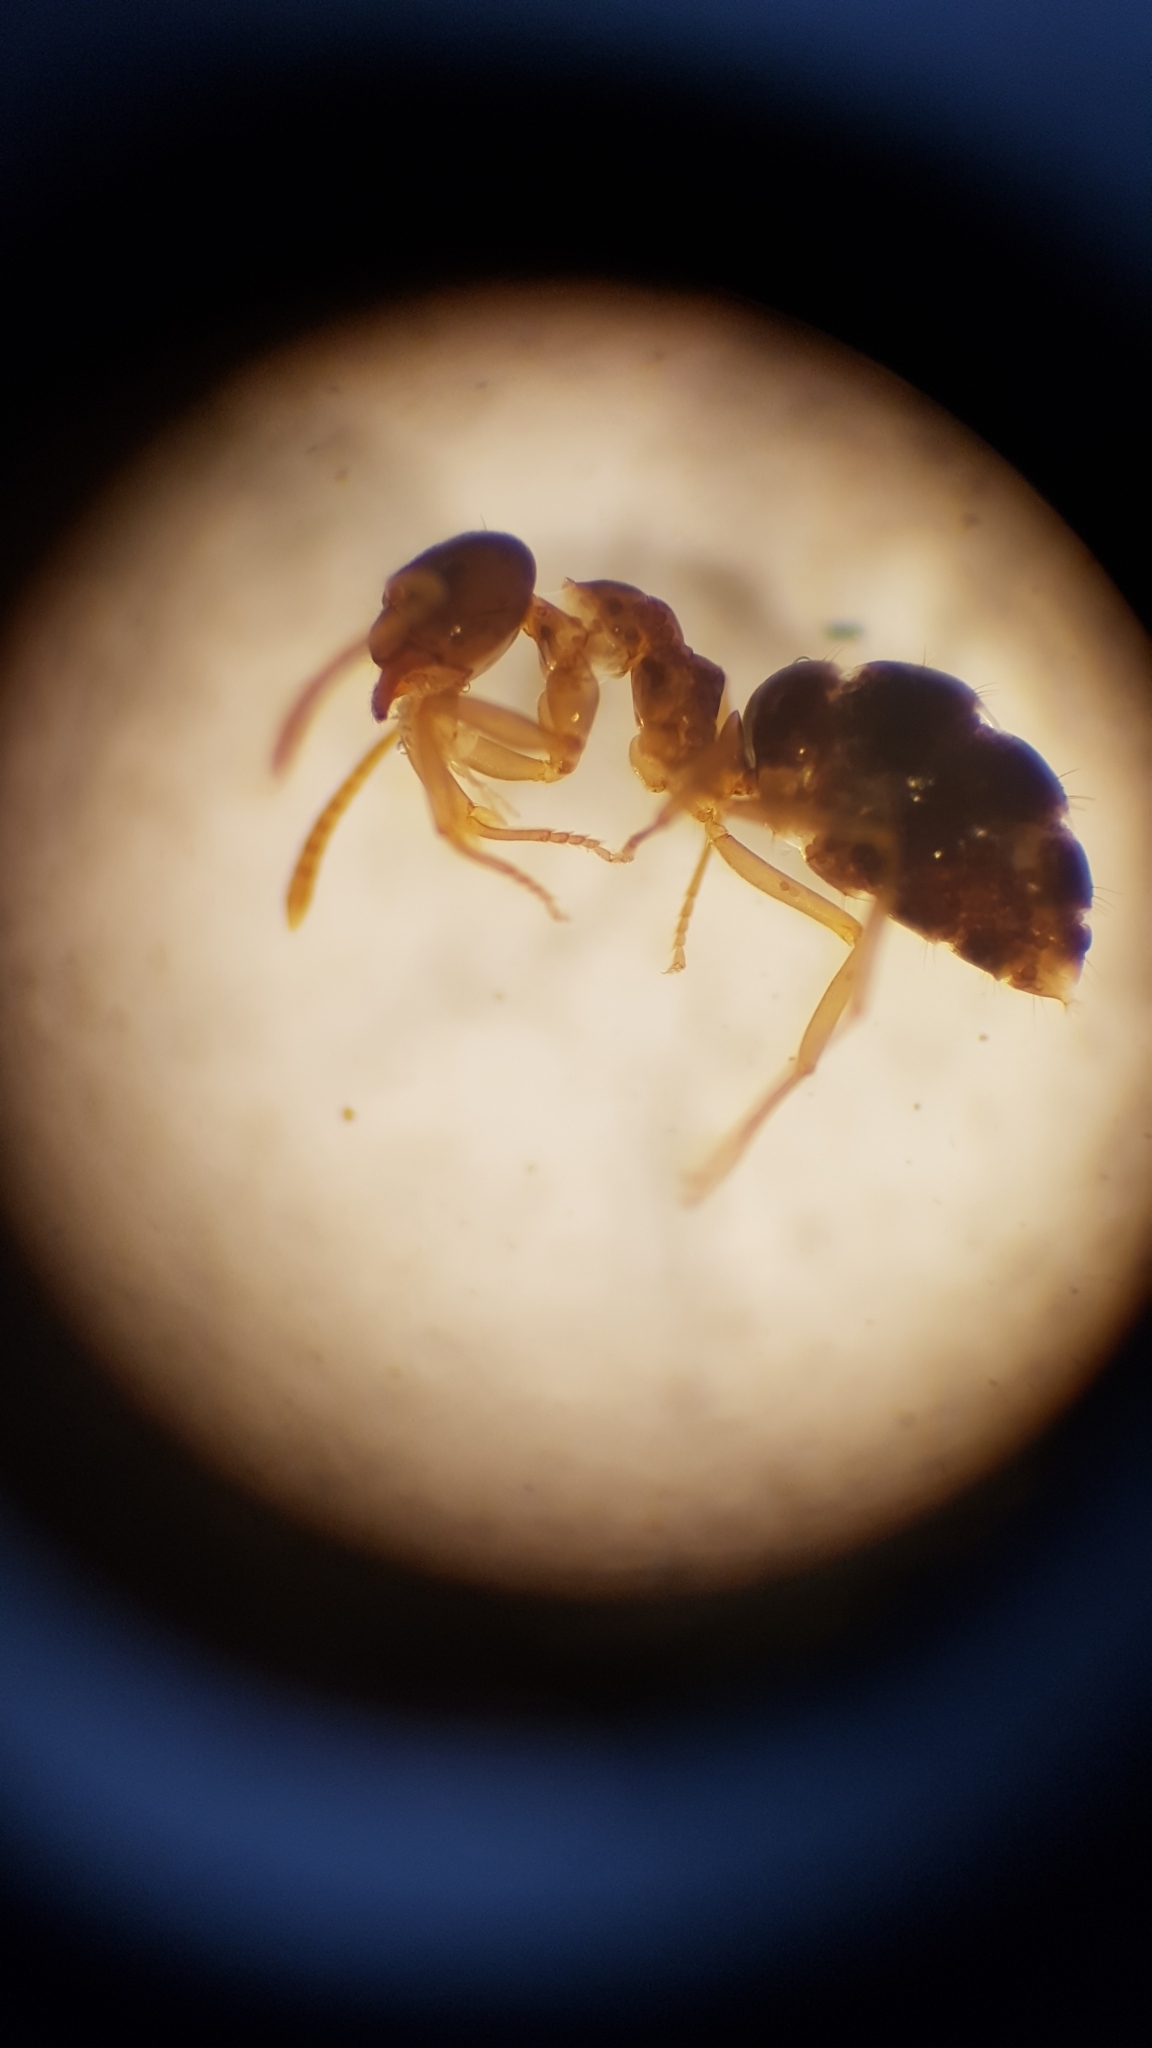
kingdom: Animalia
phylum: Arthropoda
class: Insecta
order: Hymenoptera
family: Formicidae
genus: Prolasius
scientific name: Prolasius advenus
